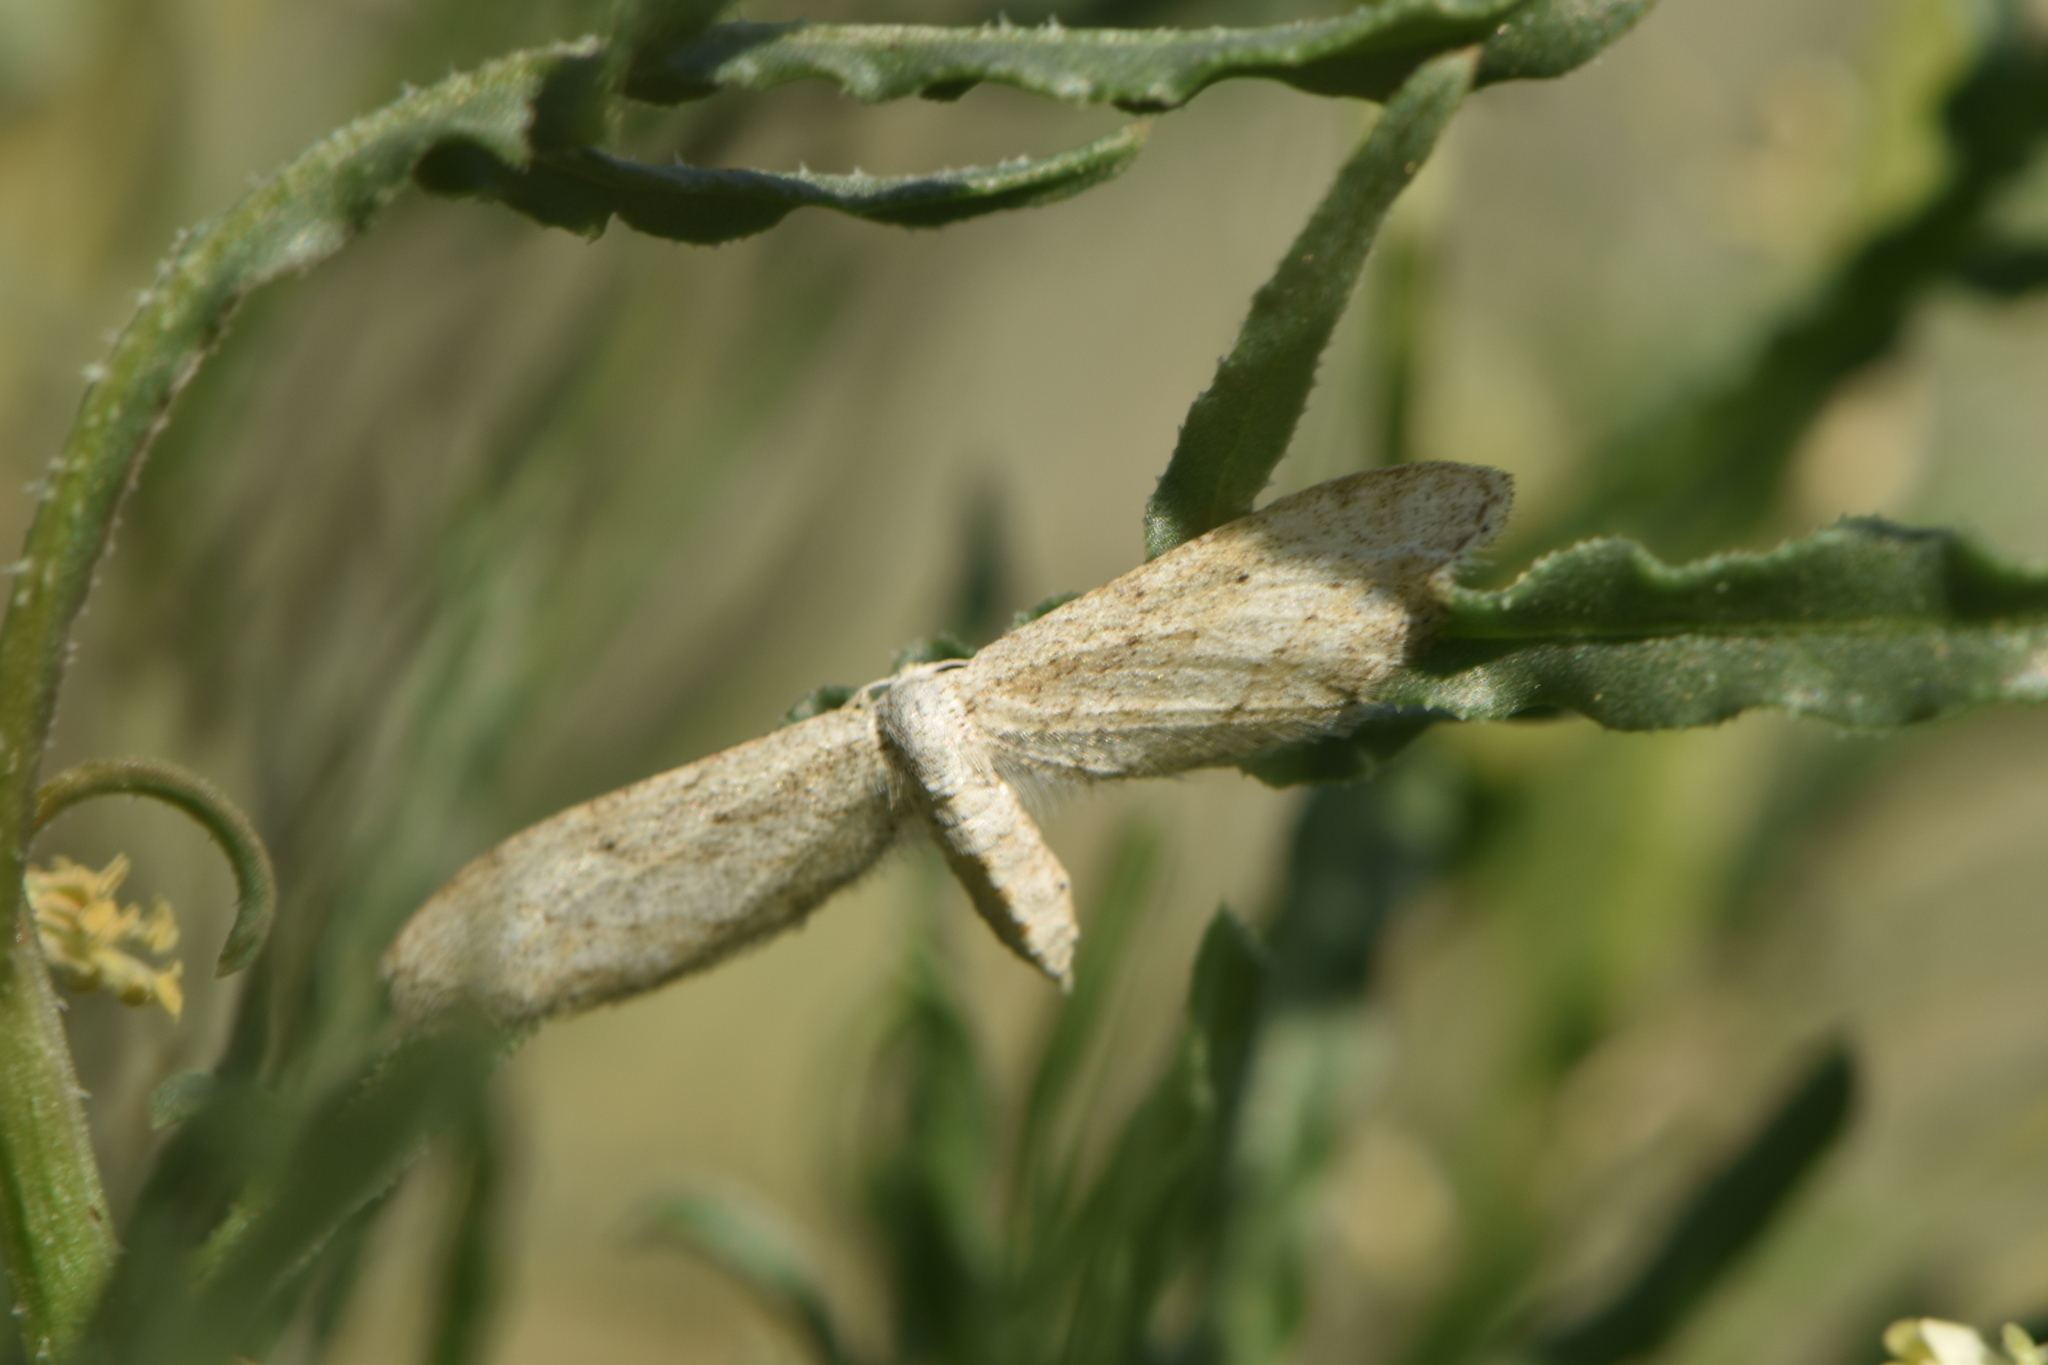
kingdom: Animalia
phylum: Arthropoda
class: Insecta
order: Lepidoptera
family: Geometridae
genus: Idaea
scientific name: Idaea longaria
